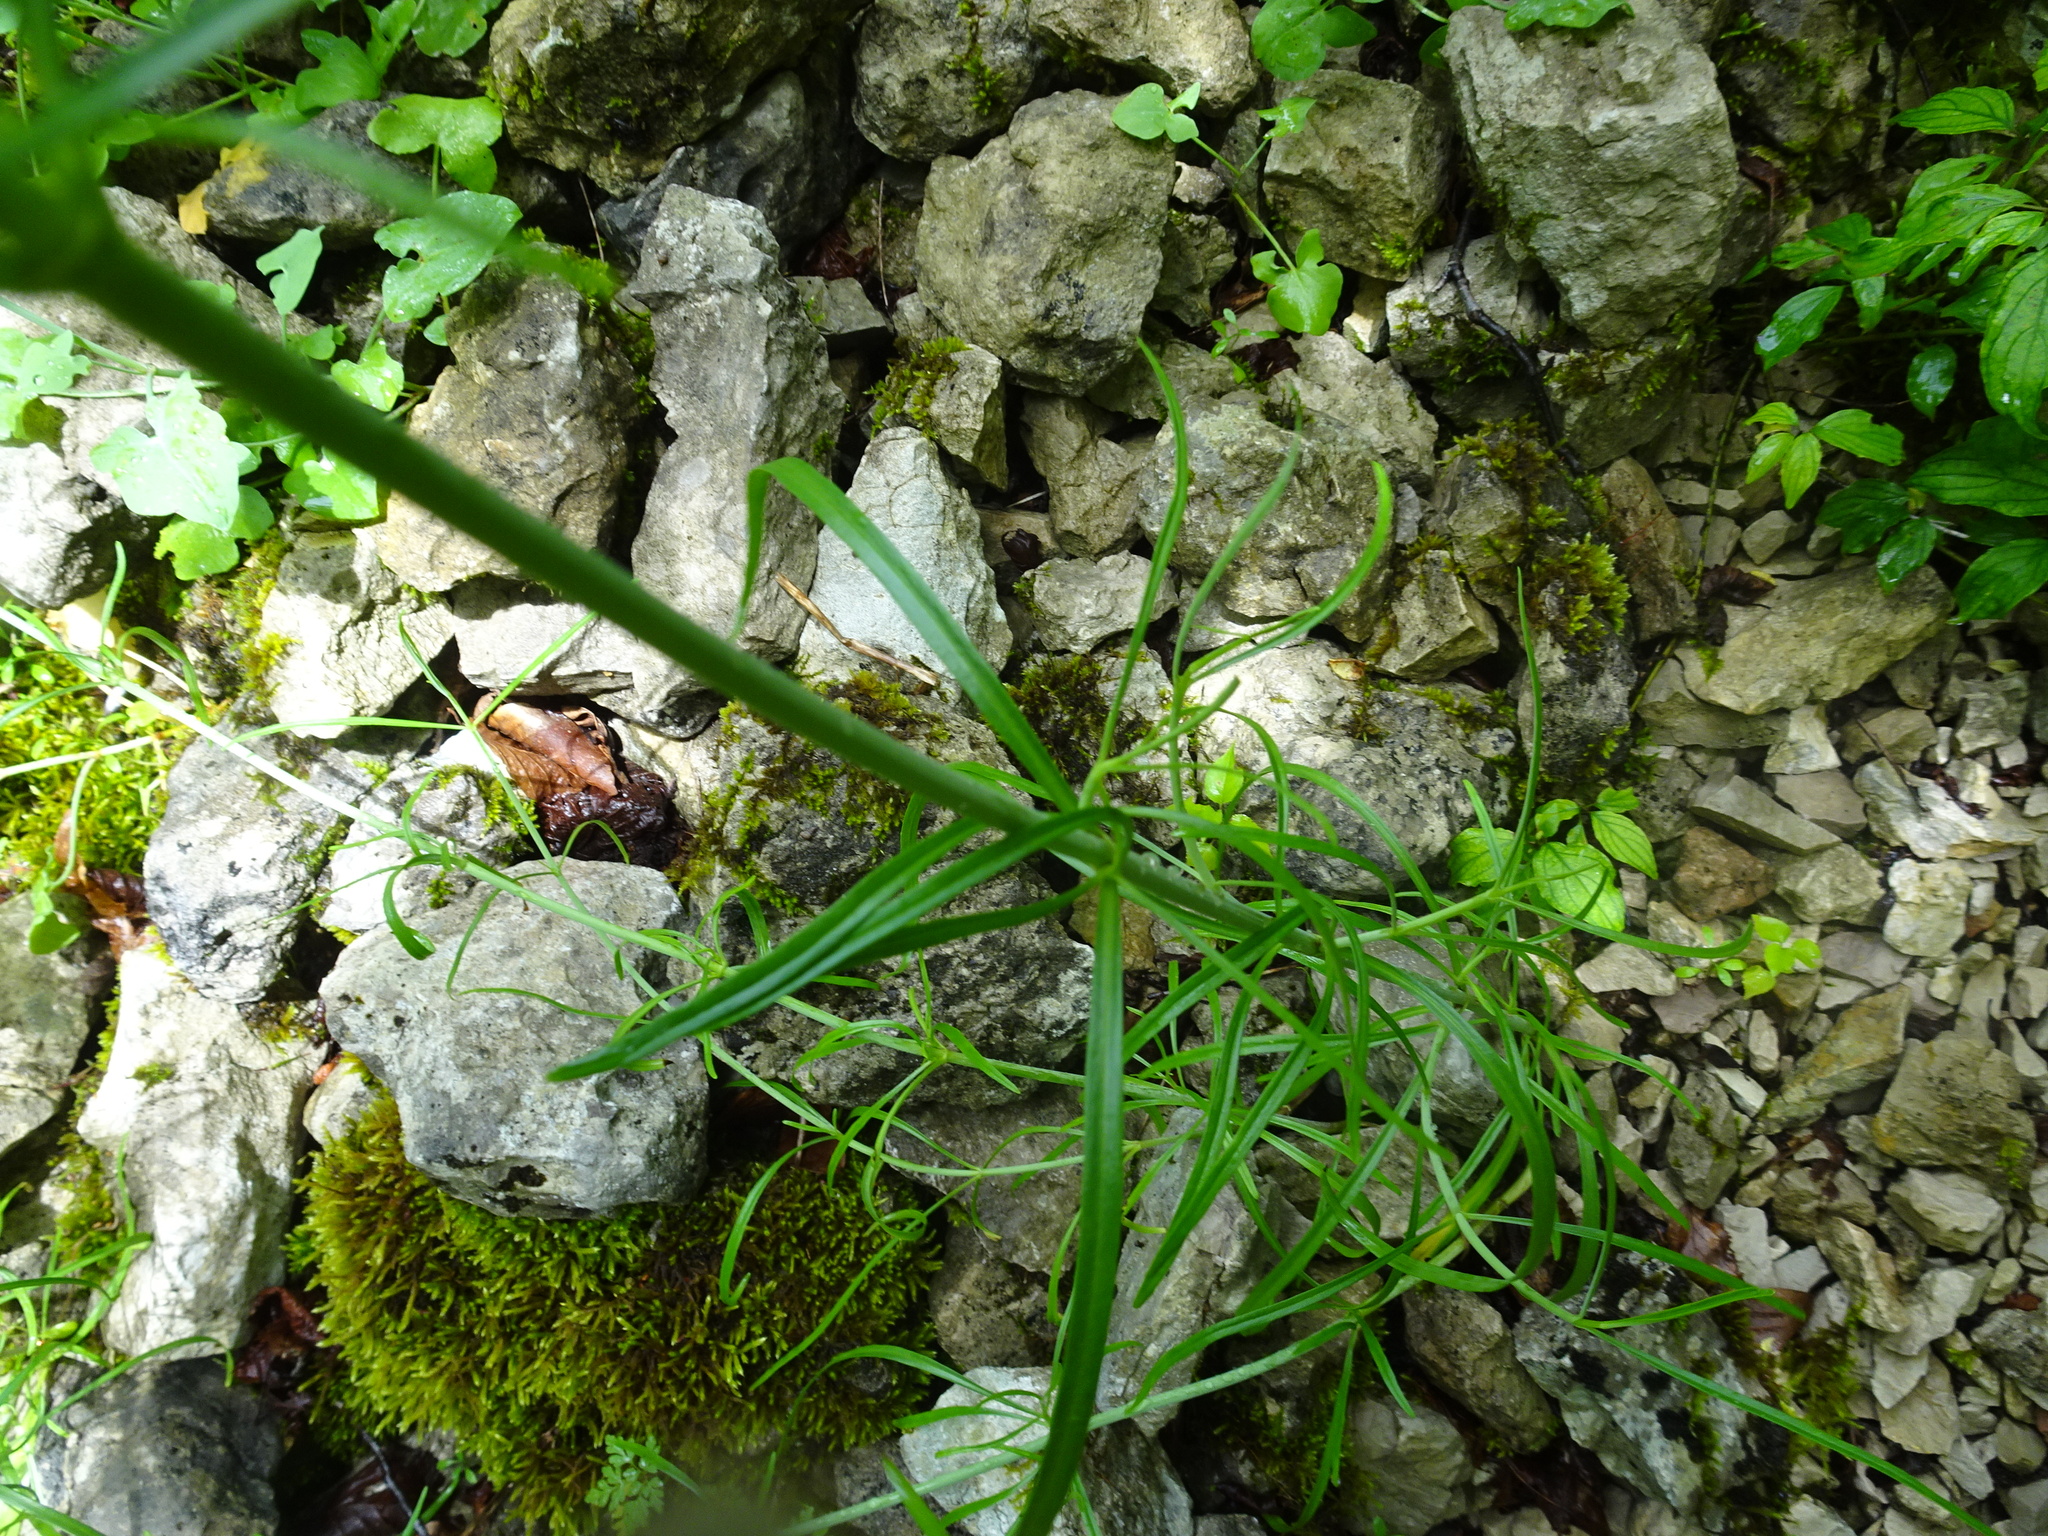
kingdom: Plantae
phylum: Tracheophyta
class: Magnoliopsida
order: Dipsacales
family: Caprifoliaceae
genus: Centranthus
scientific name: Centranthus angustifolius
